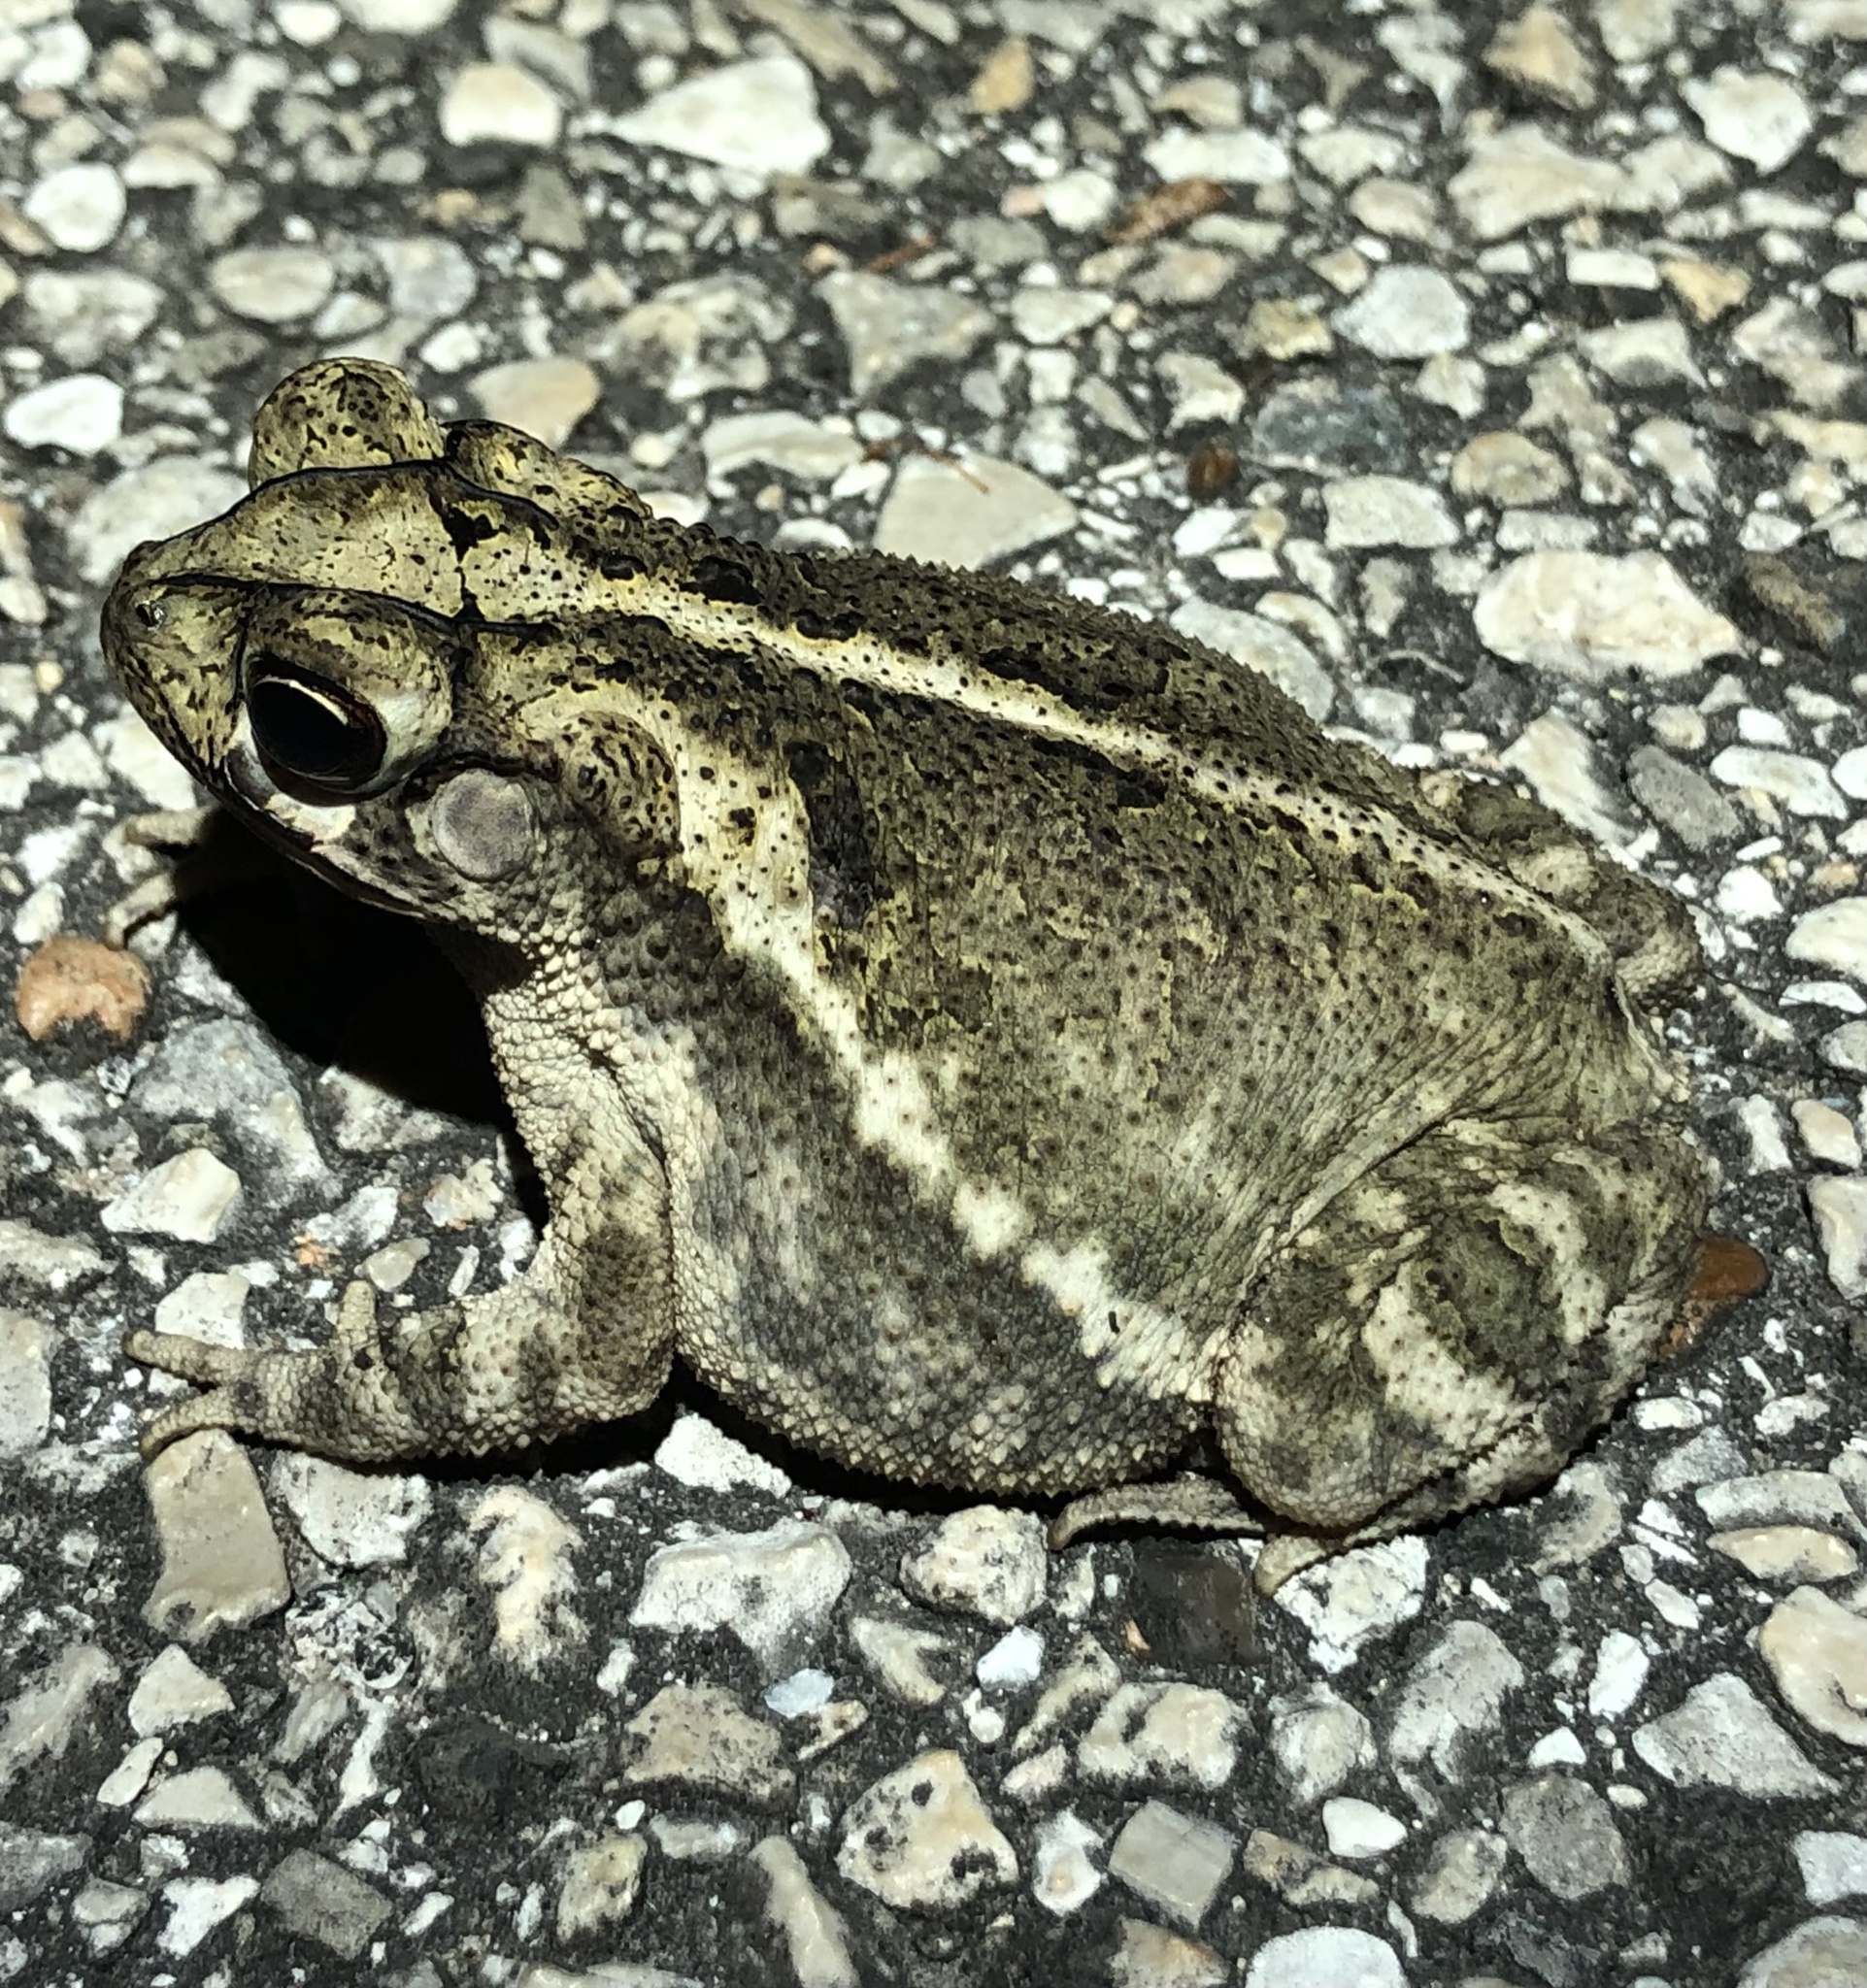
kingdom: Animalia
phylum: Chordata
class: Amphibia
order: Anura
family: Bufonidae
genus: Incilius
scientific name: Incilius nebulifer
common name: Gulf coast toad
